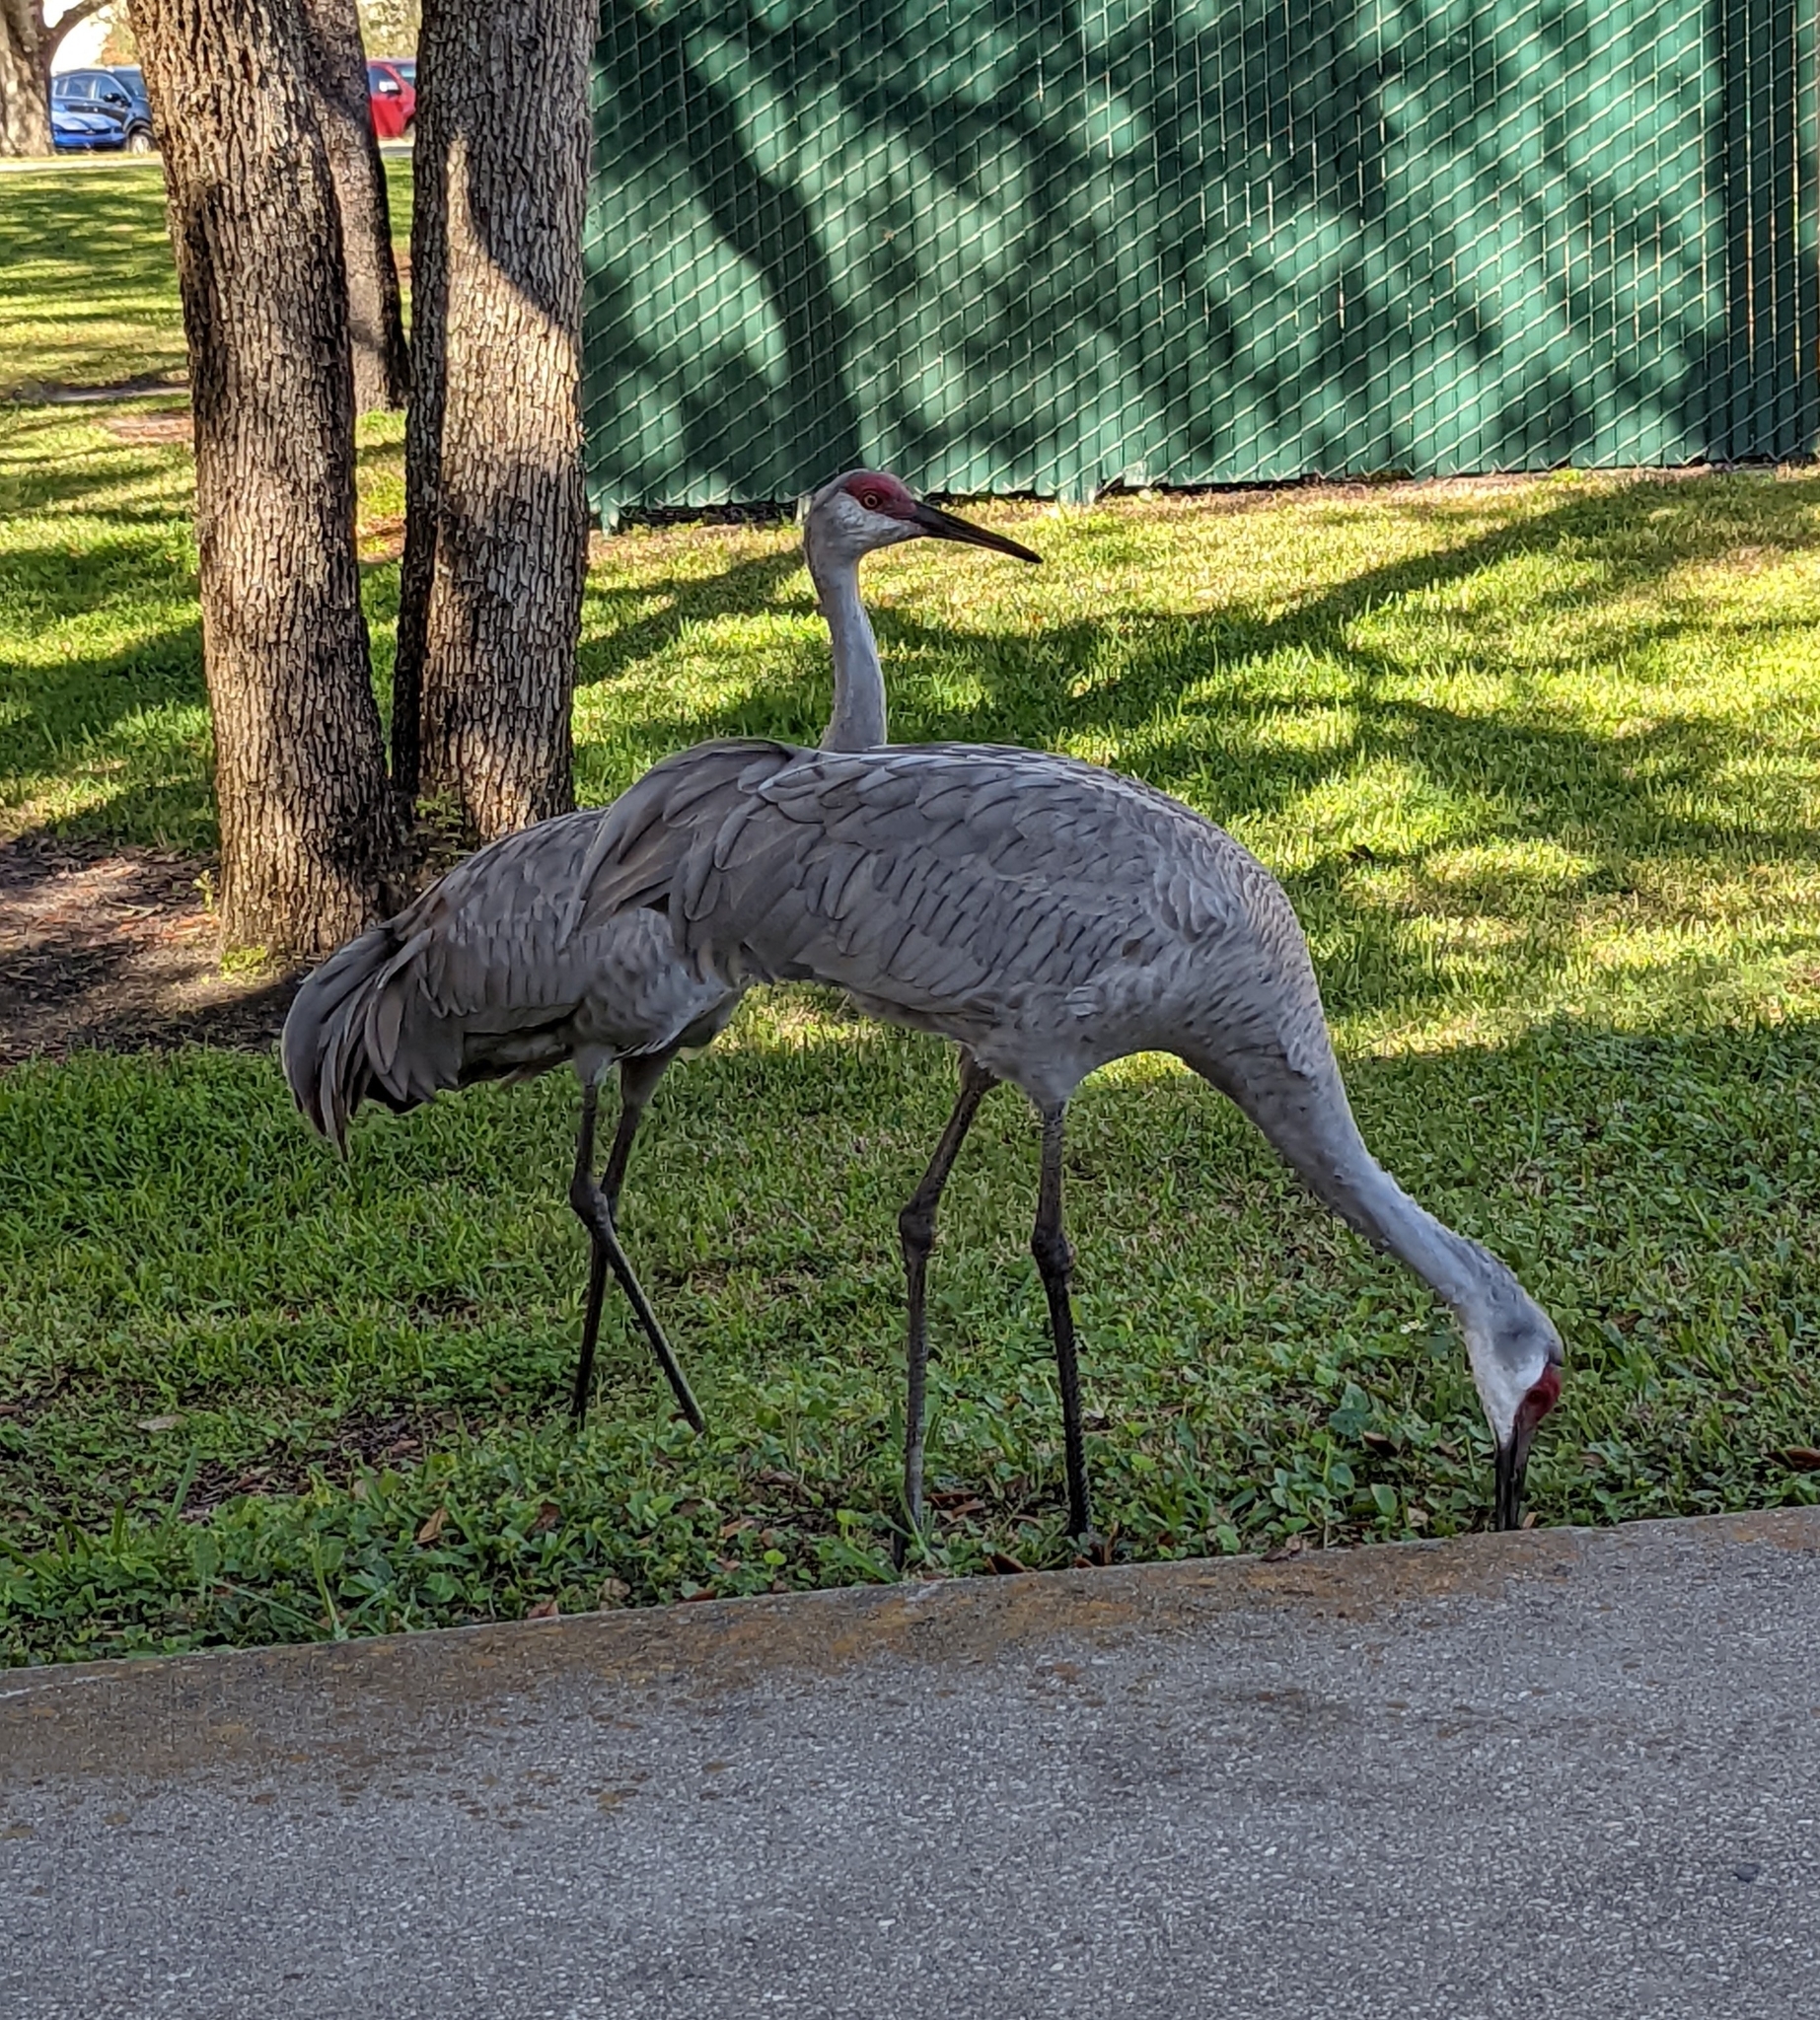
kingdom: Animalia
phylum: Chordata
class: Aves
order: Gruiformes
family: Gruidae
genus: Grus
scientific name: Grus canadensis
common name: Sandhill crane
